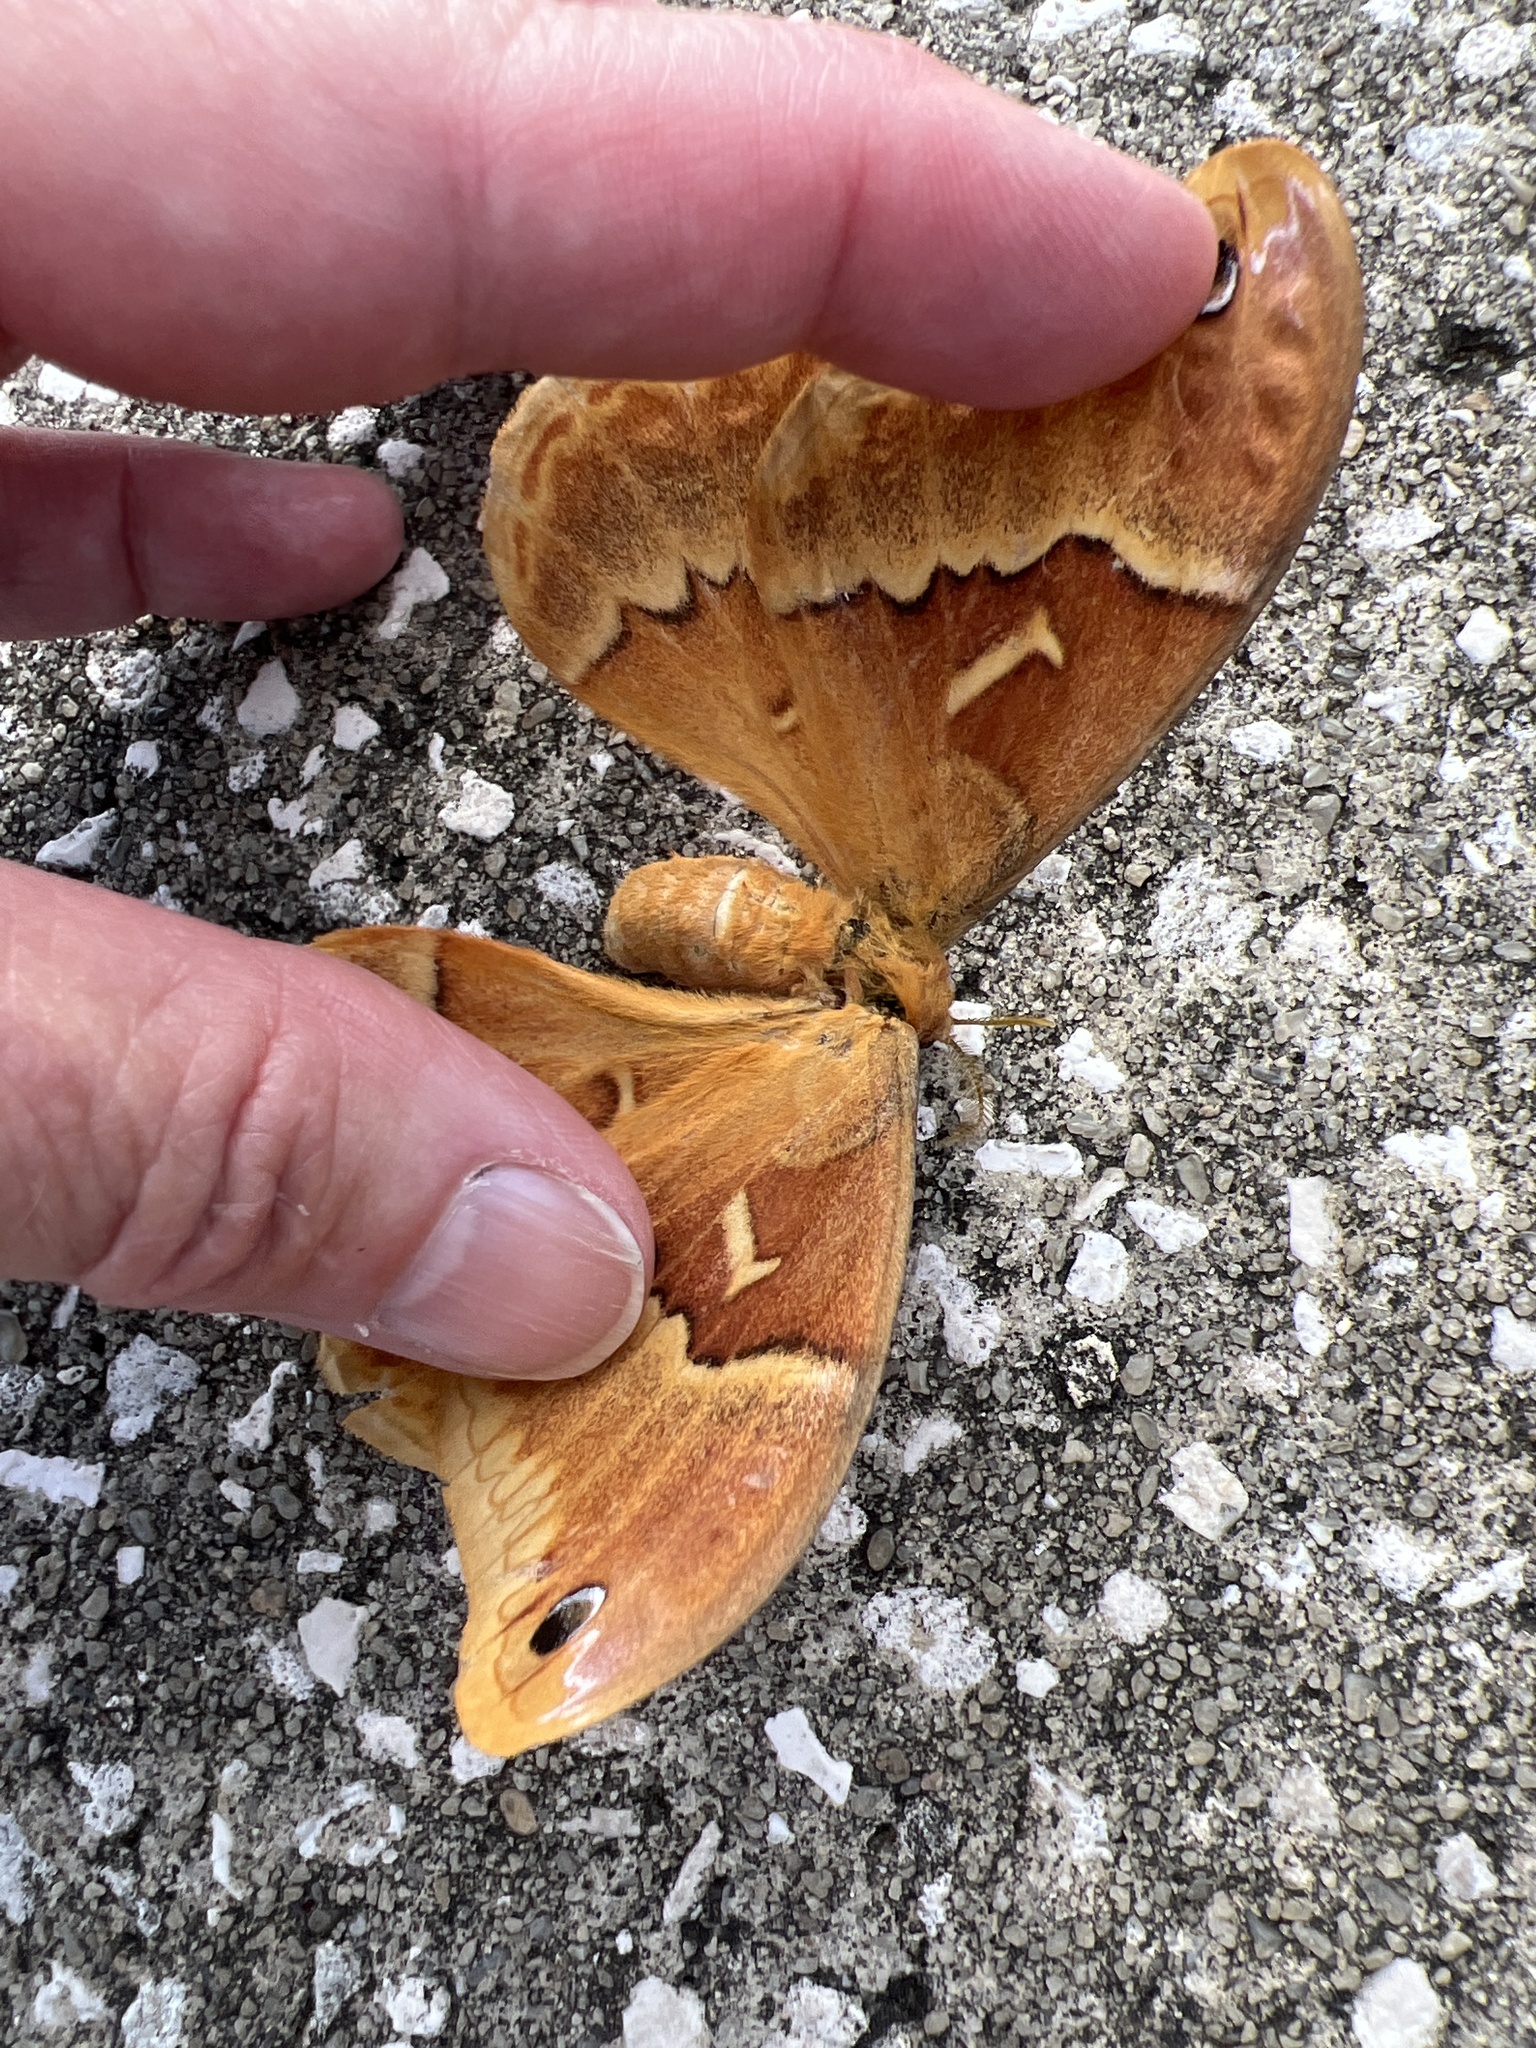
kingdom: Animalia
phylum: Arthropoda
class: Insecta
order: Lepidoptera
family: Saturniidae
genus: Callosamia
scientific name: Callosamia securifera
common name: Sweetbay silkmoth
